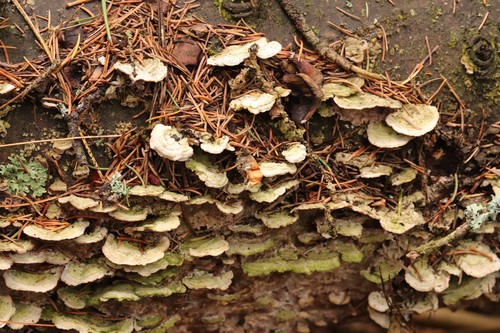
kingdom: Fungi
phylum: Basidiomycota
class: Agaricomycetes
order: Hymenochaetales
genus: Trichaptum
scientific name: Trichaptum fuscoviolaceum
